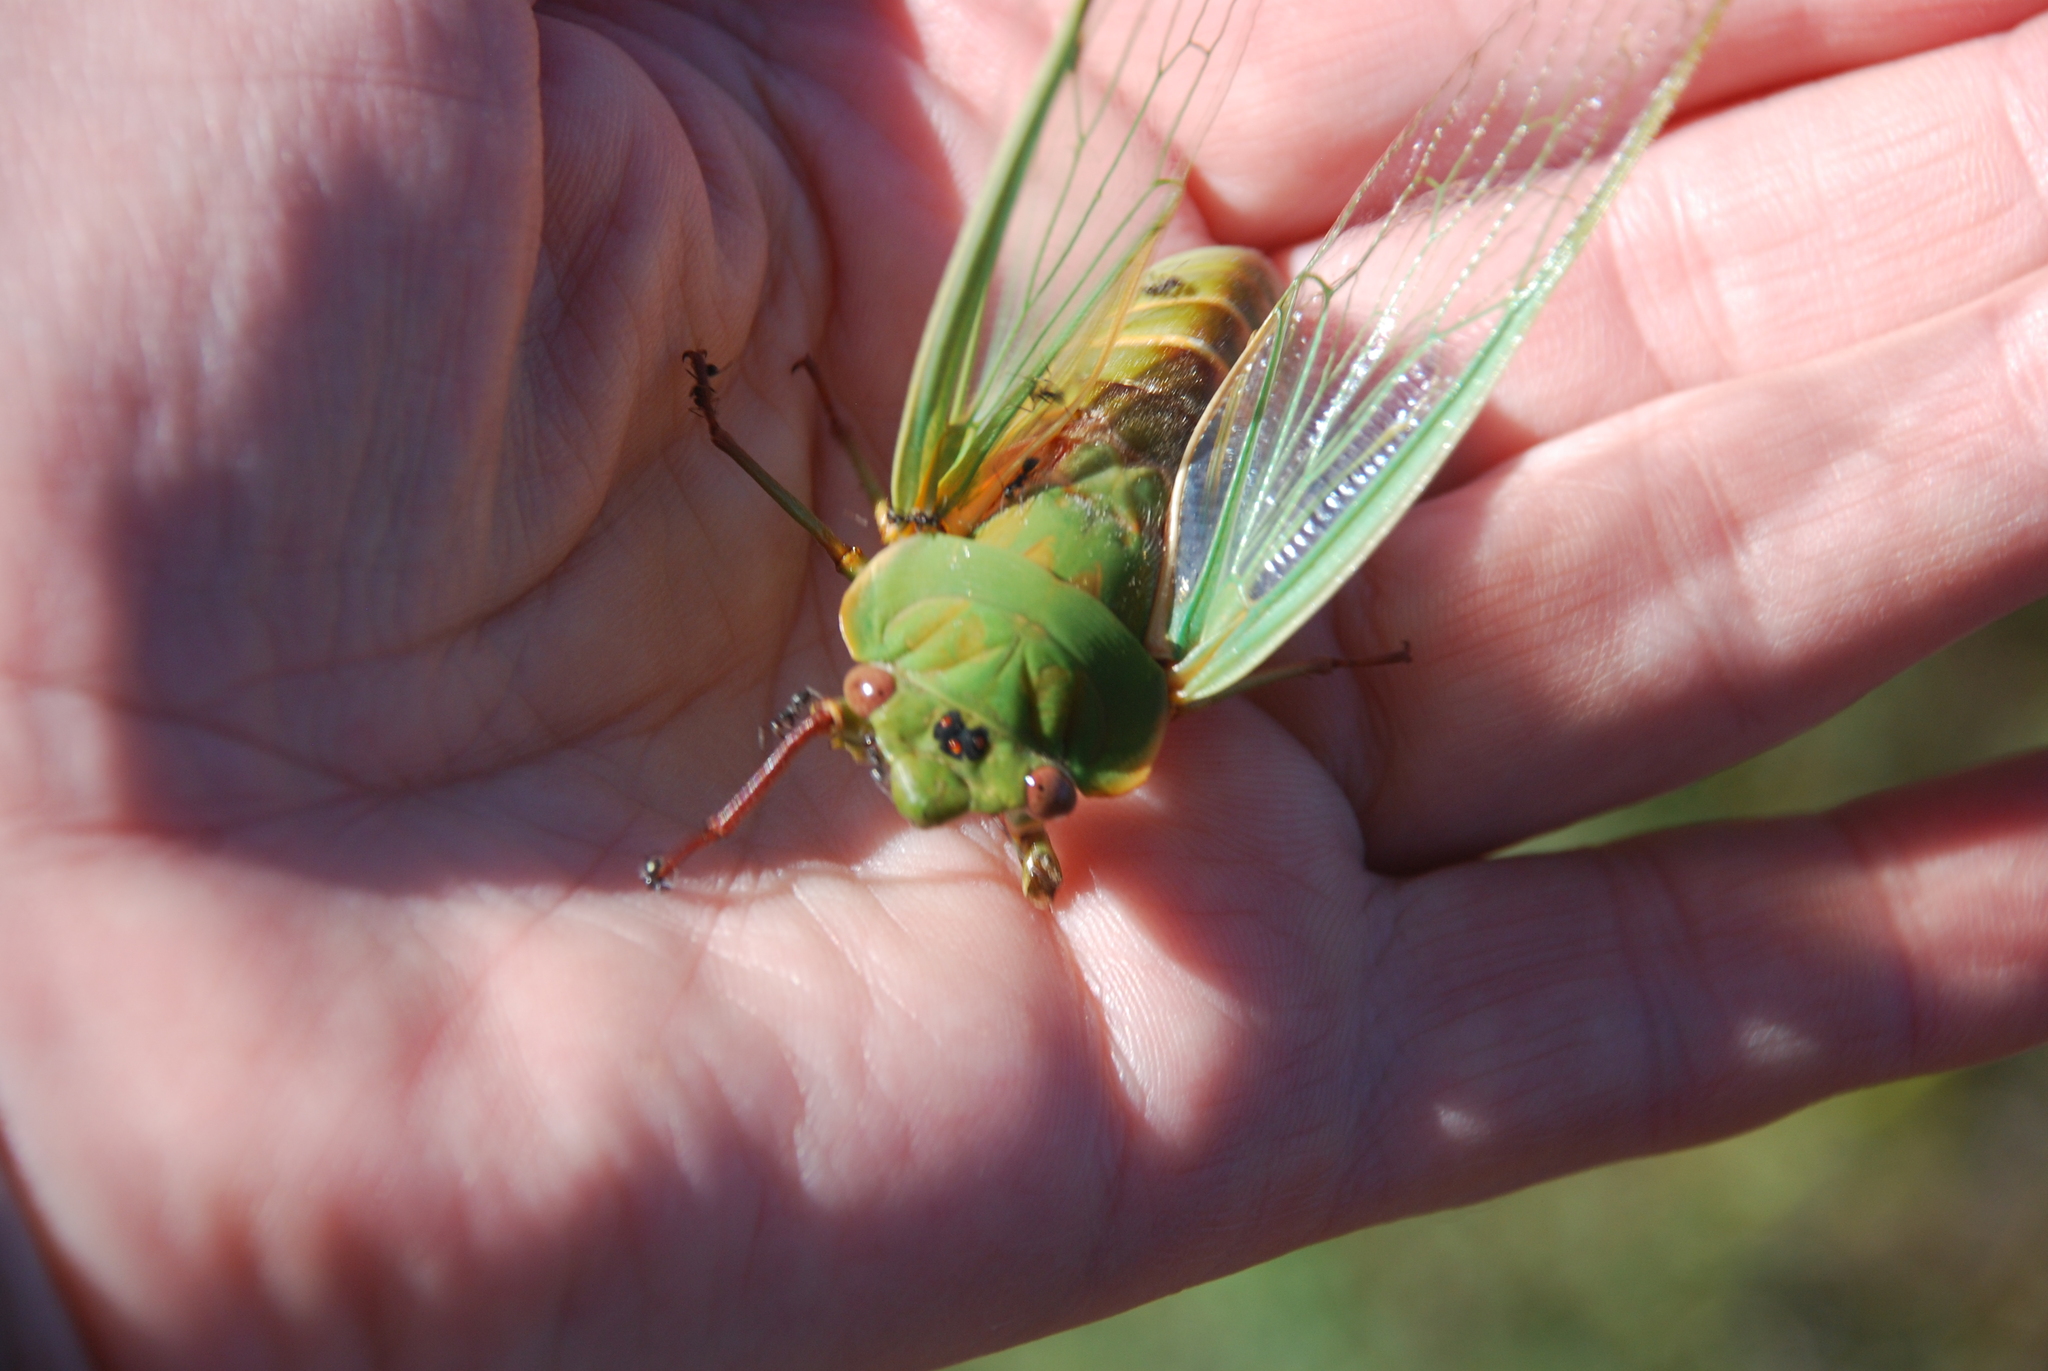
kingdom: Animalia
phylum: Arthropoda
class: Insecta
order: Hemiptera
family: Cicadidae
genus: Cyclochila
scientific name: Cyclochila australasiae
